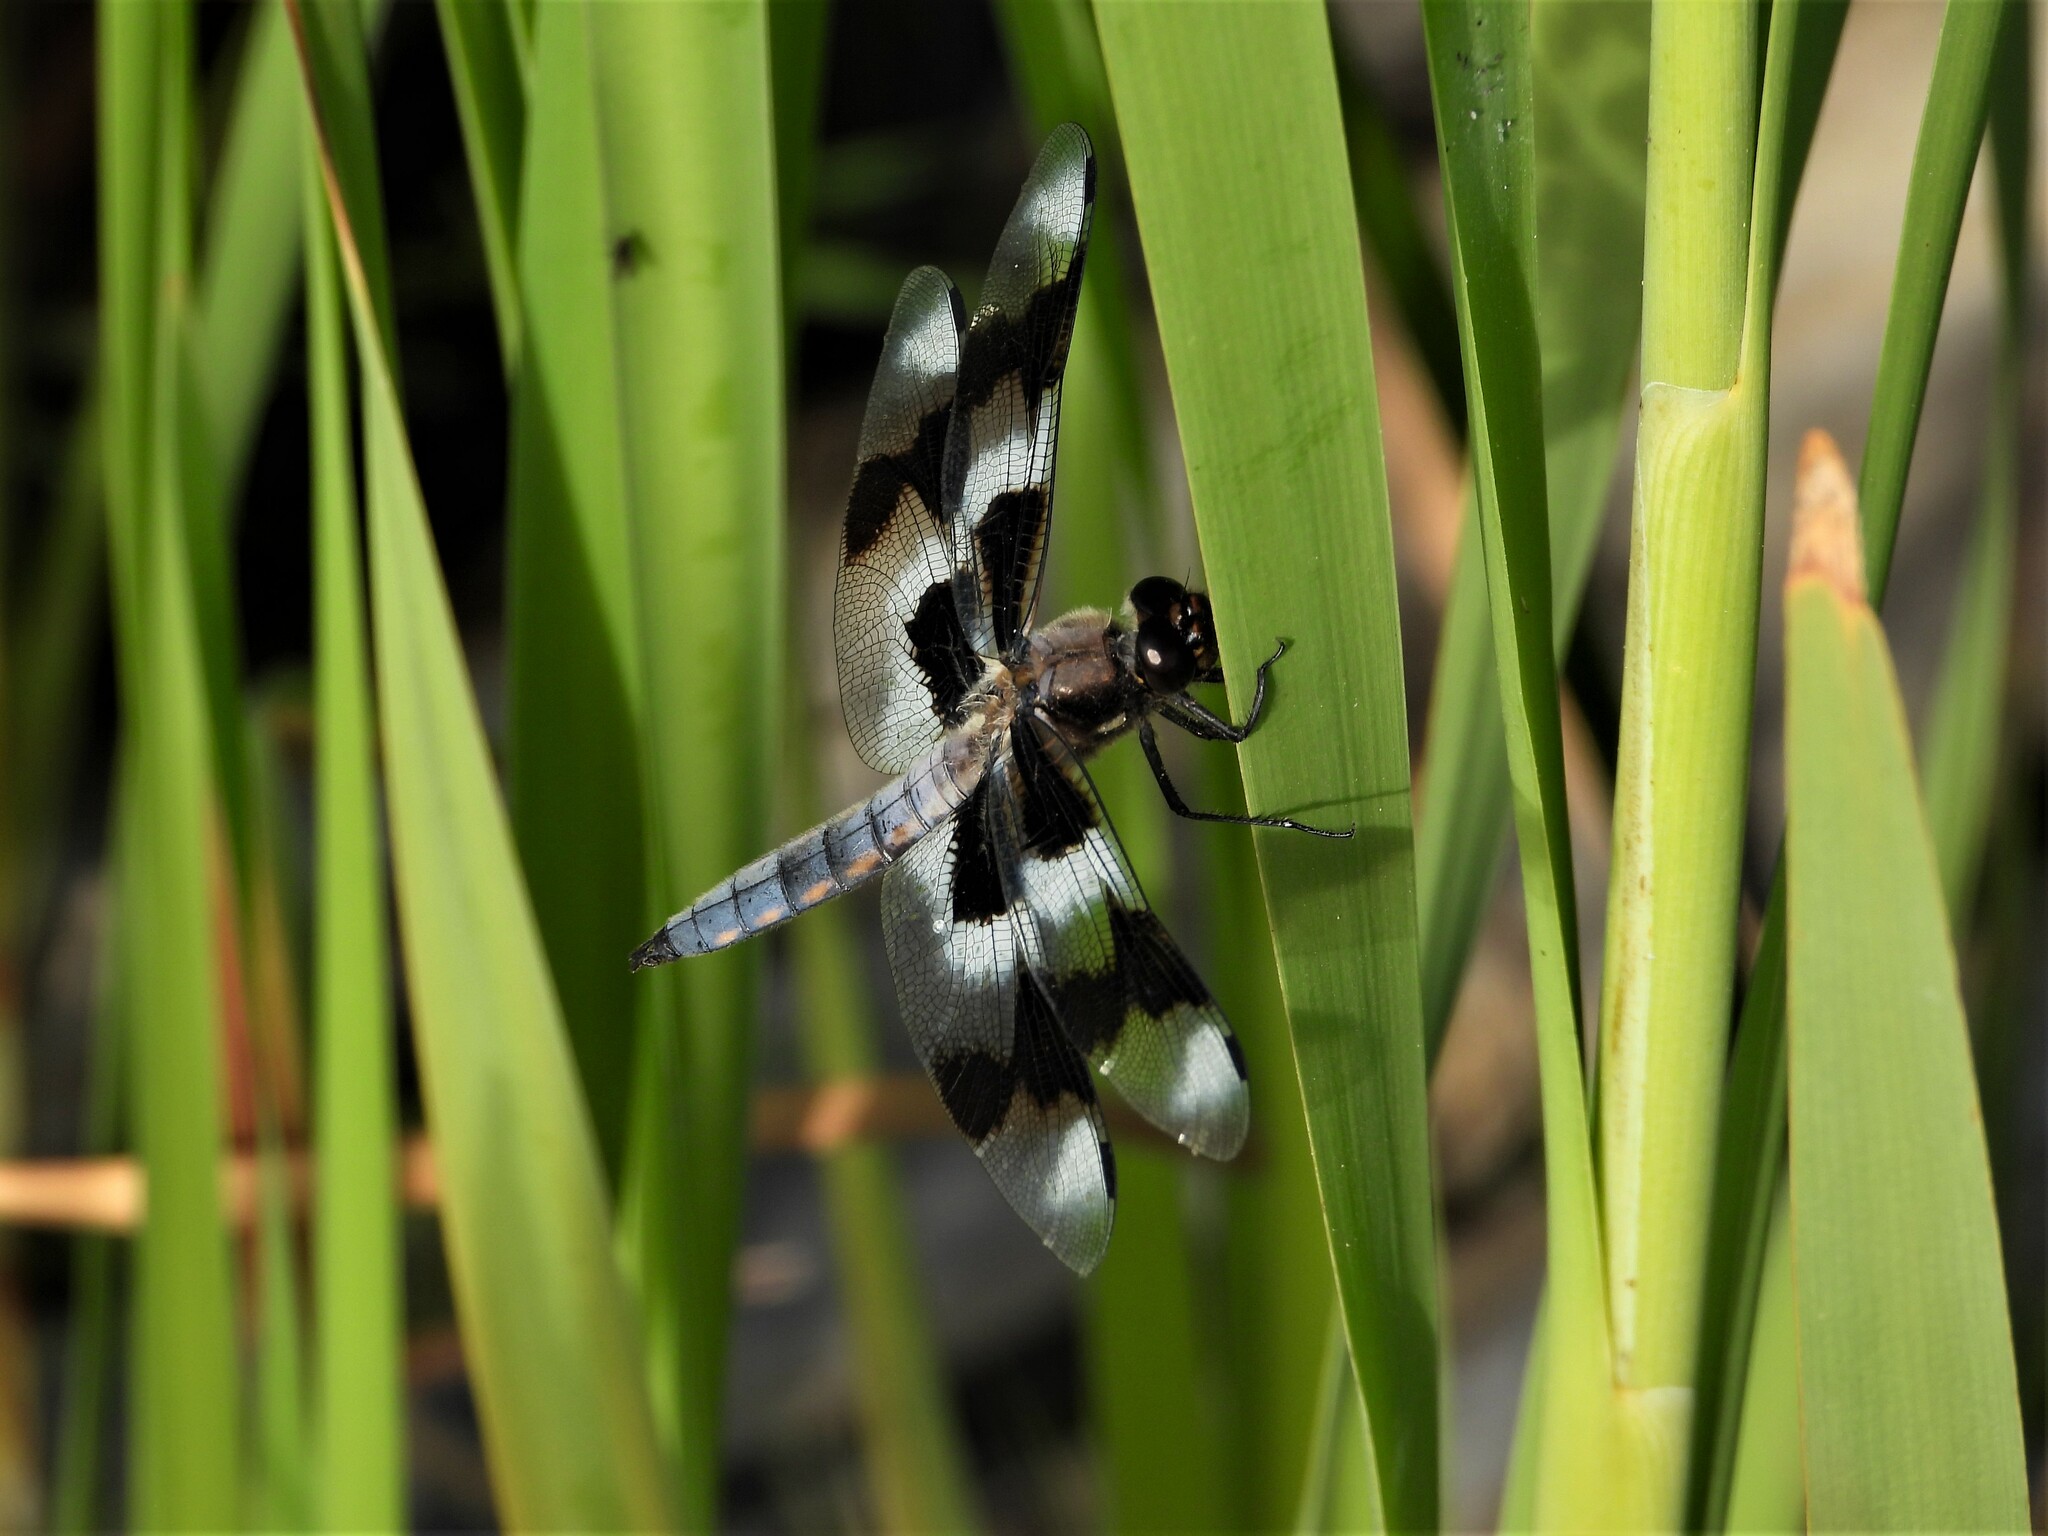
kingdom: Animalia
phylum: Arthropoda
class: Insecta
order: Odonata
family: Libellulidae
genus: Libellula
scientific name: Libellula forensis
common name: Eight-spotted skimmer
